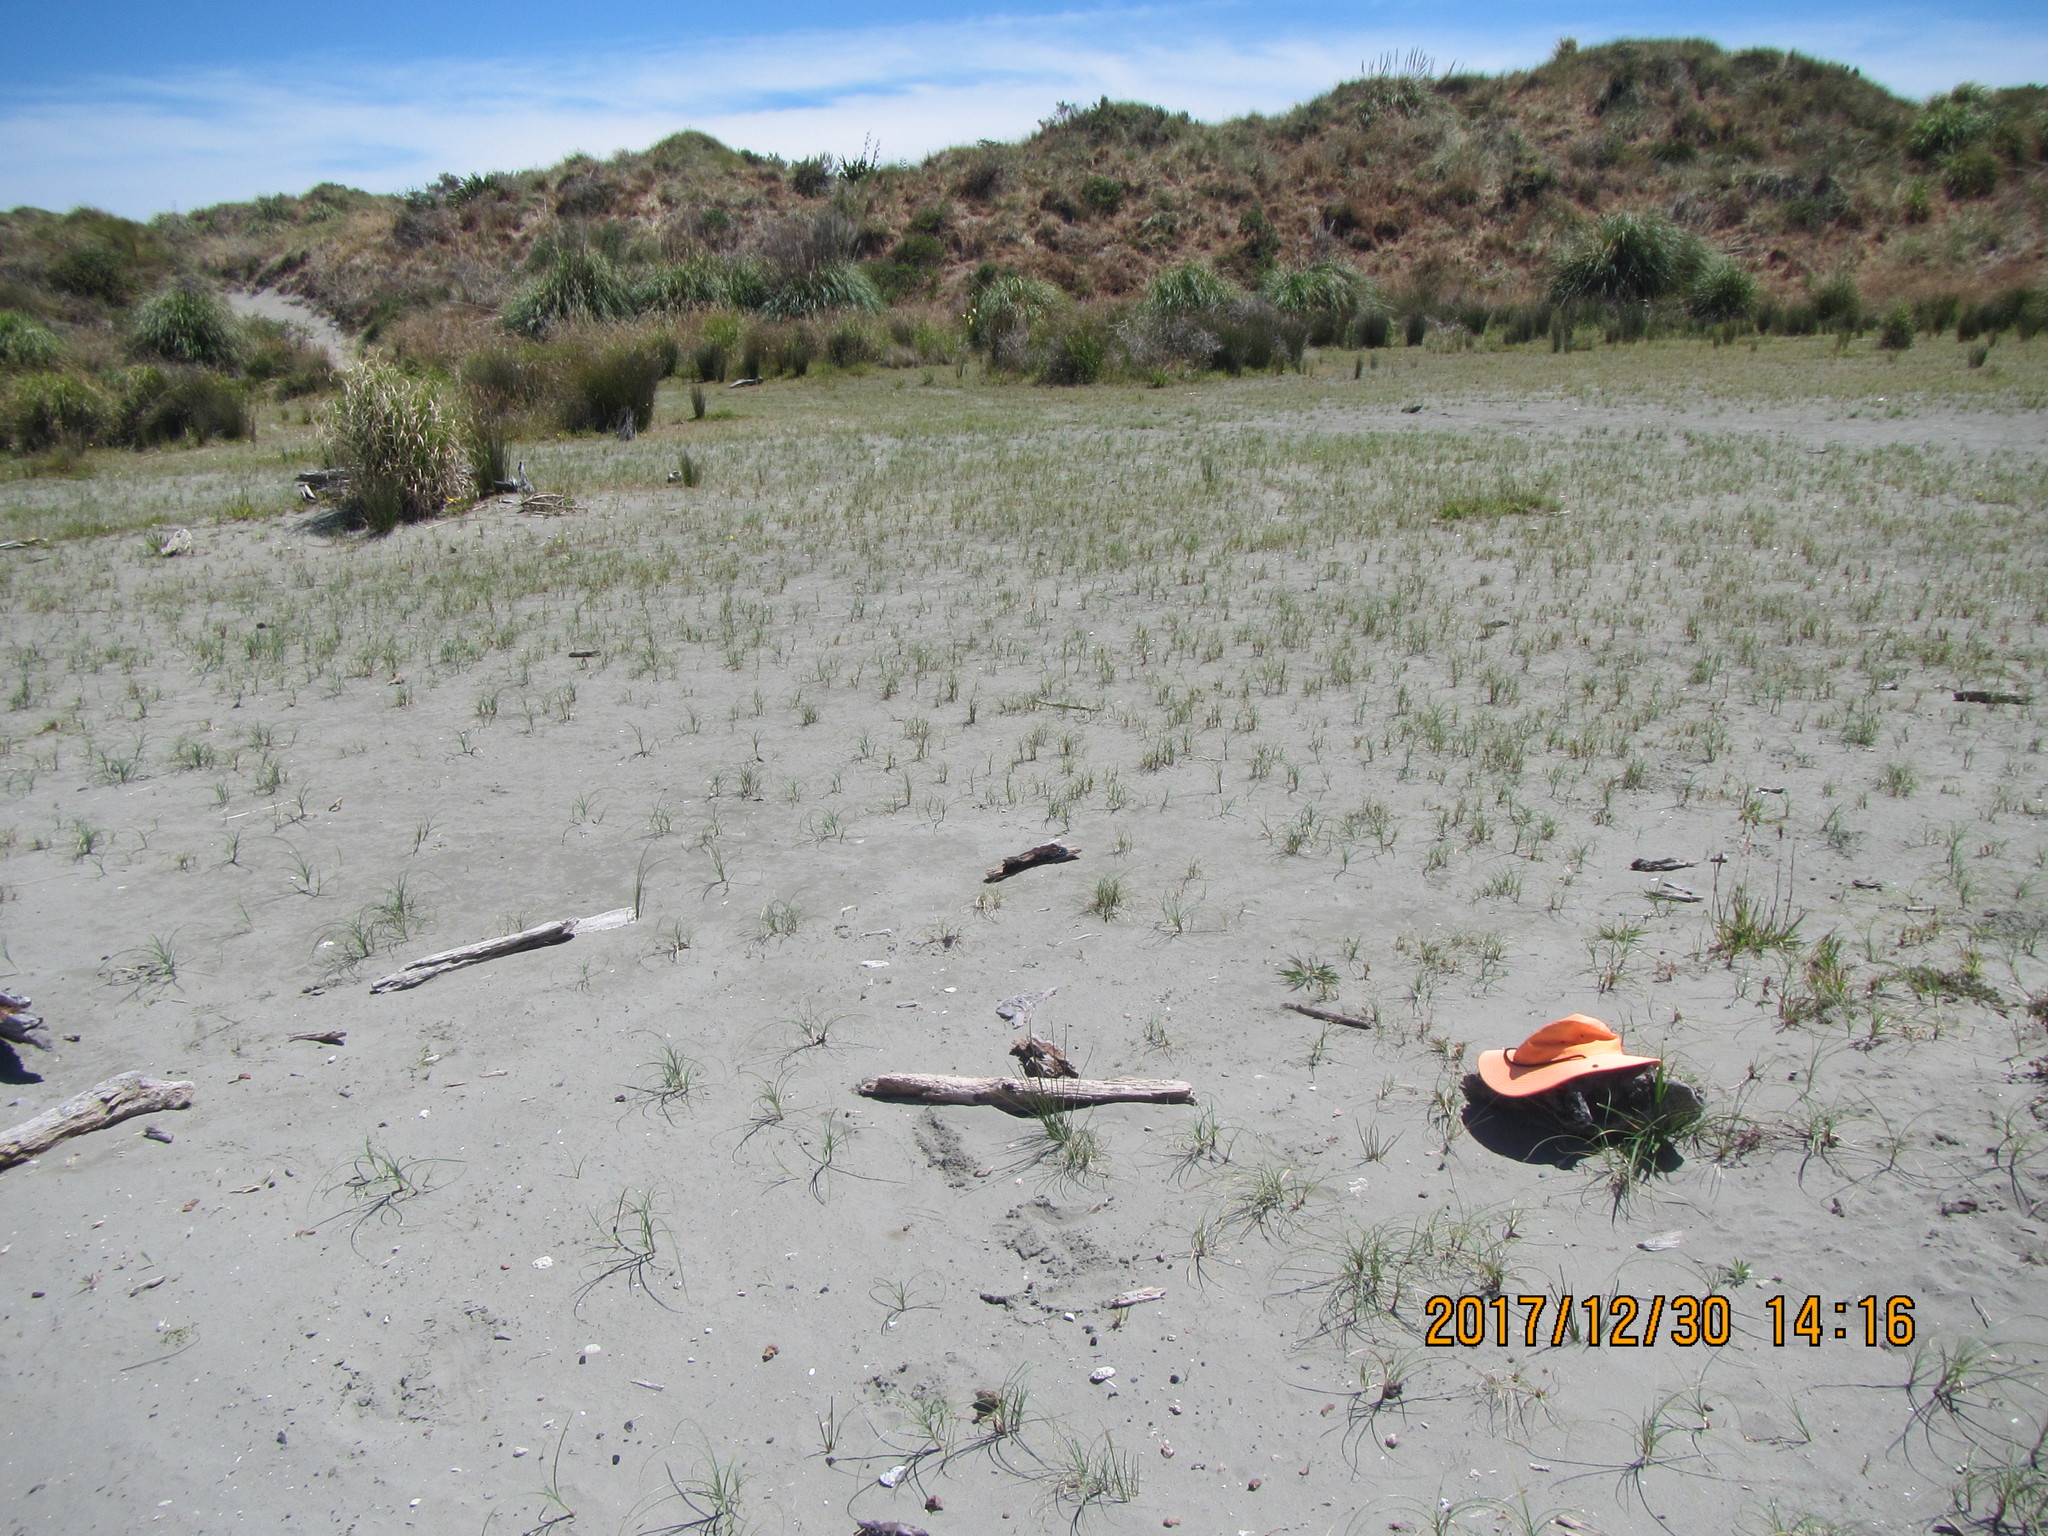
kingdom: Animalia
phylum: Arthropoda
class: Insecta
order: Dermaptera
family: Anisolabididae
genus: Anisolabis
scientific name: Anisolabis littorea
